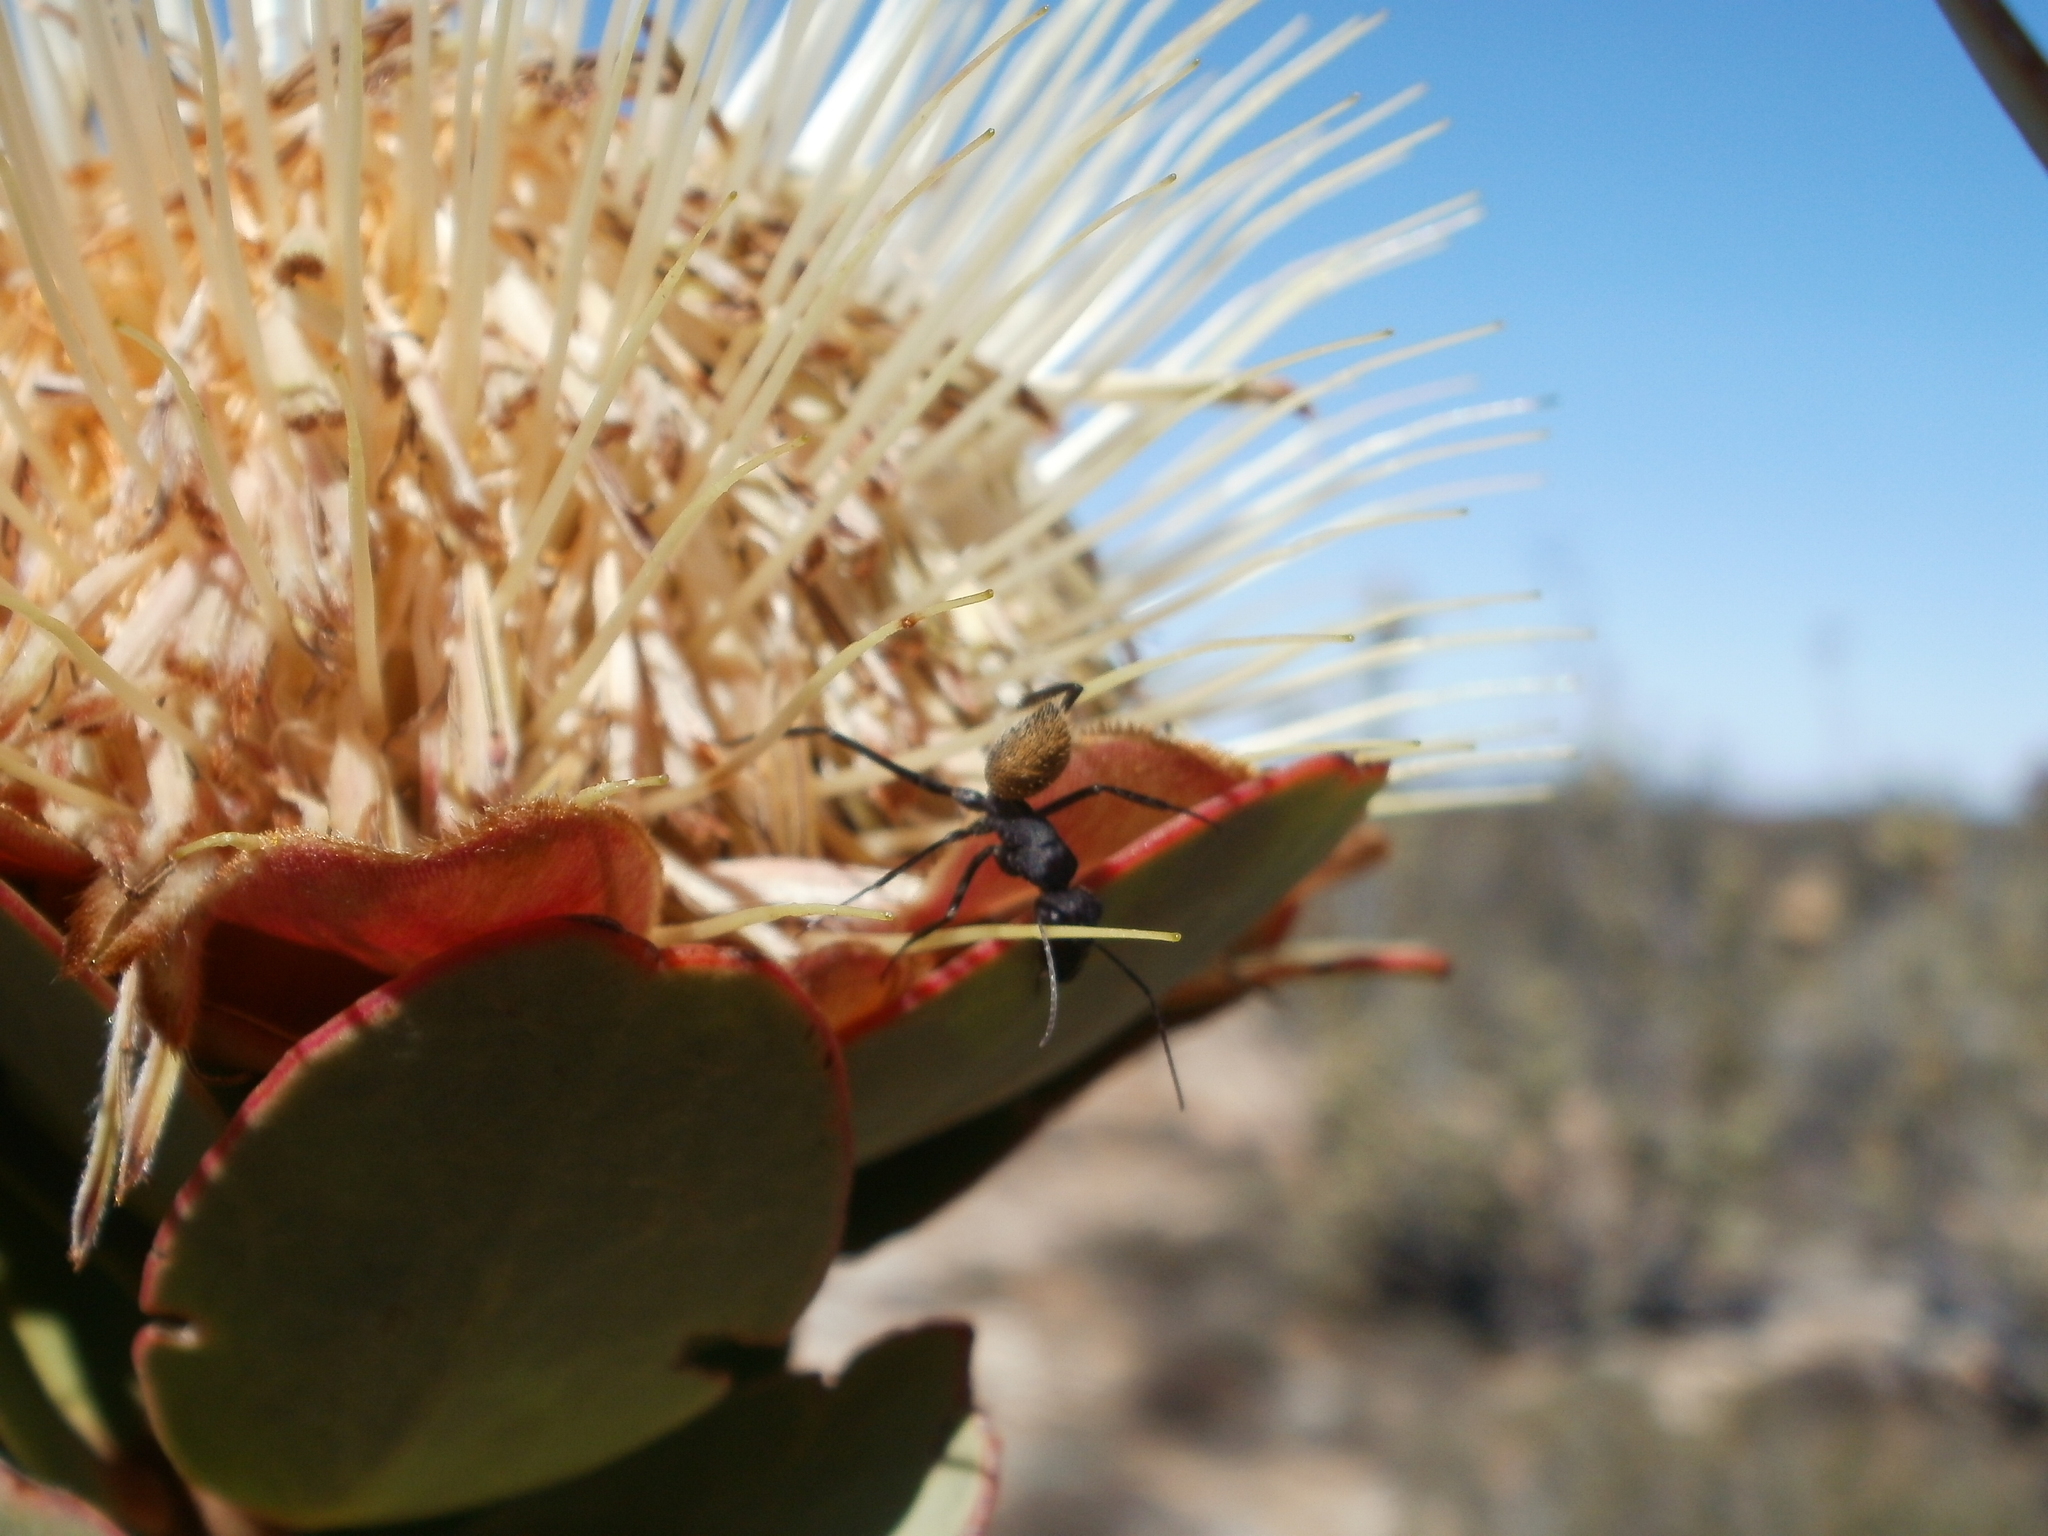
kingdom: Plantae
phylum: Tracheophyta
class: Magnoliopsida
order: Proteales
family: Proteaceae
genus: Protea
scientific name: Protea glabra
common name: Chestnut sugarbush
